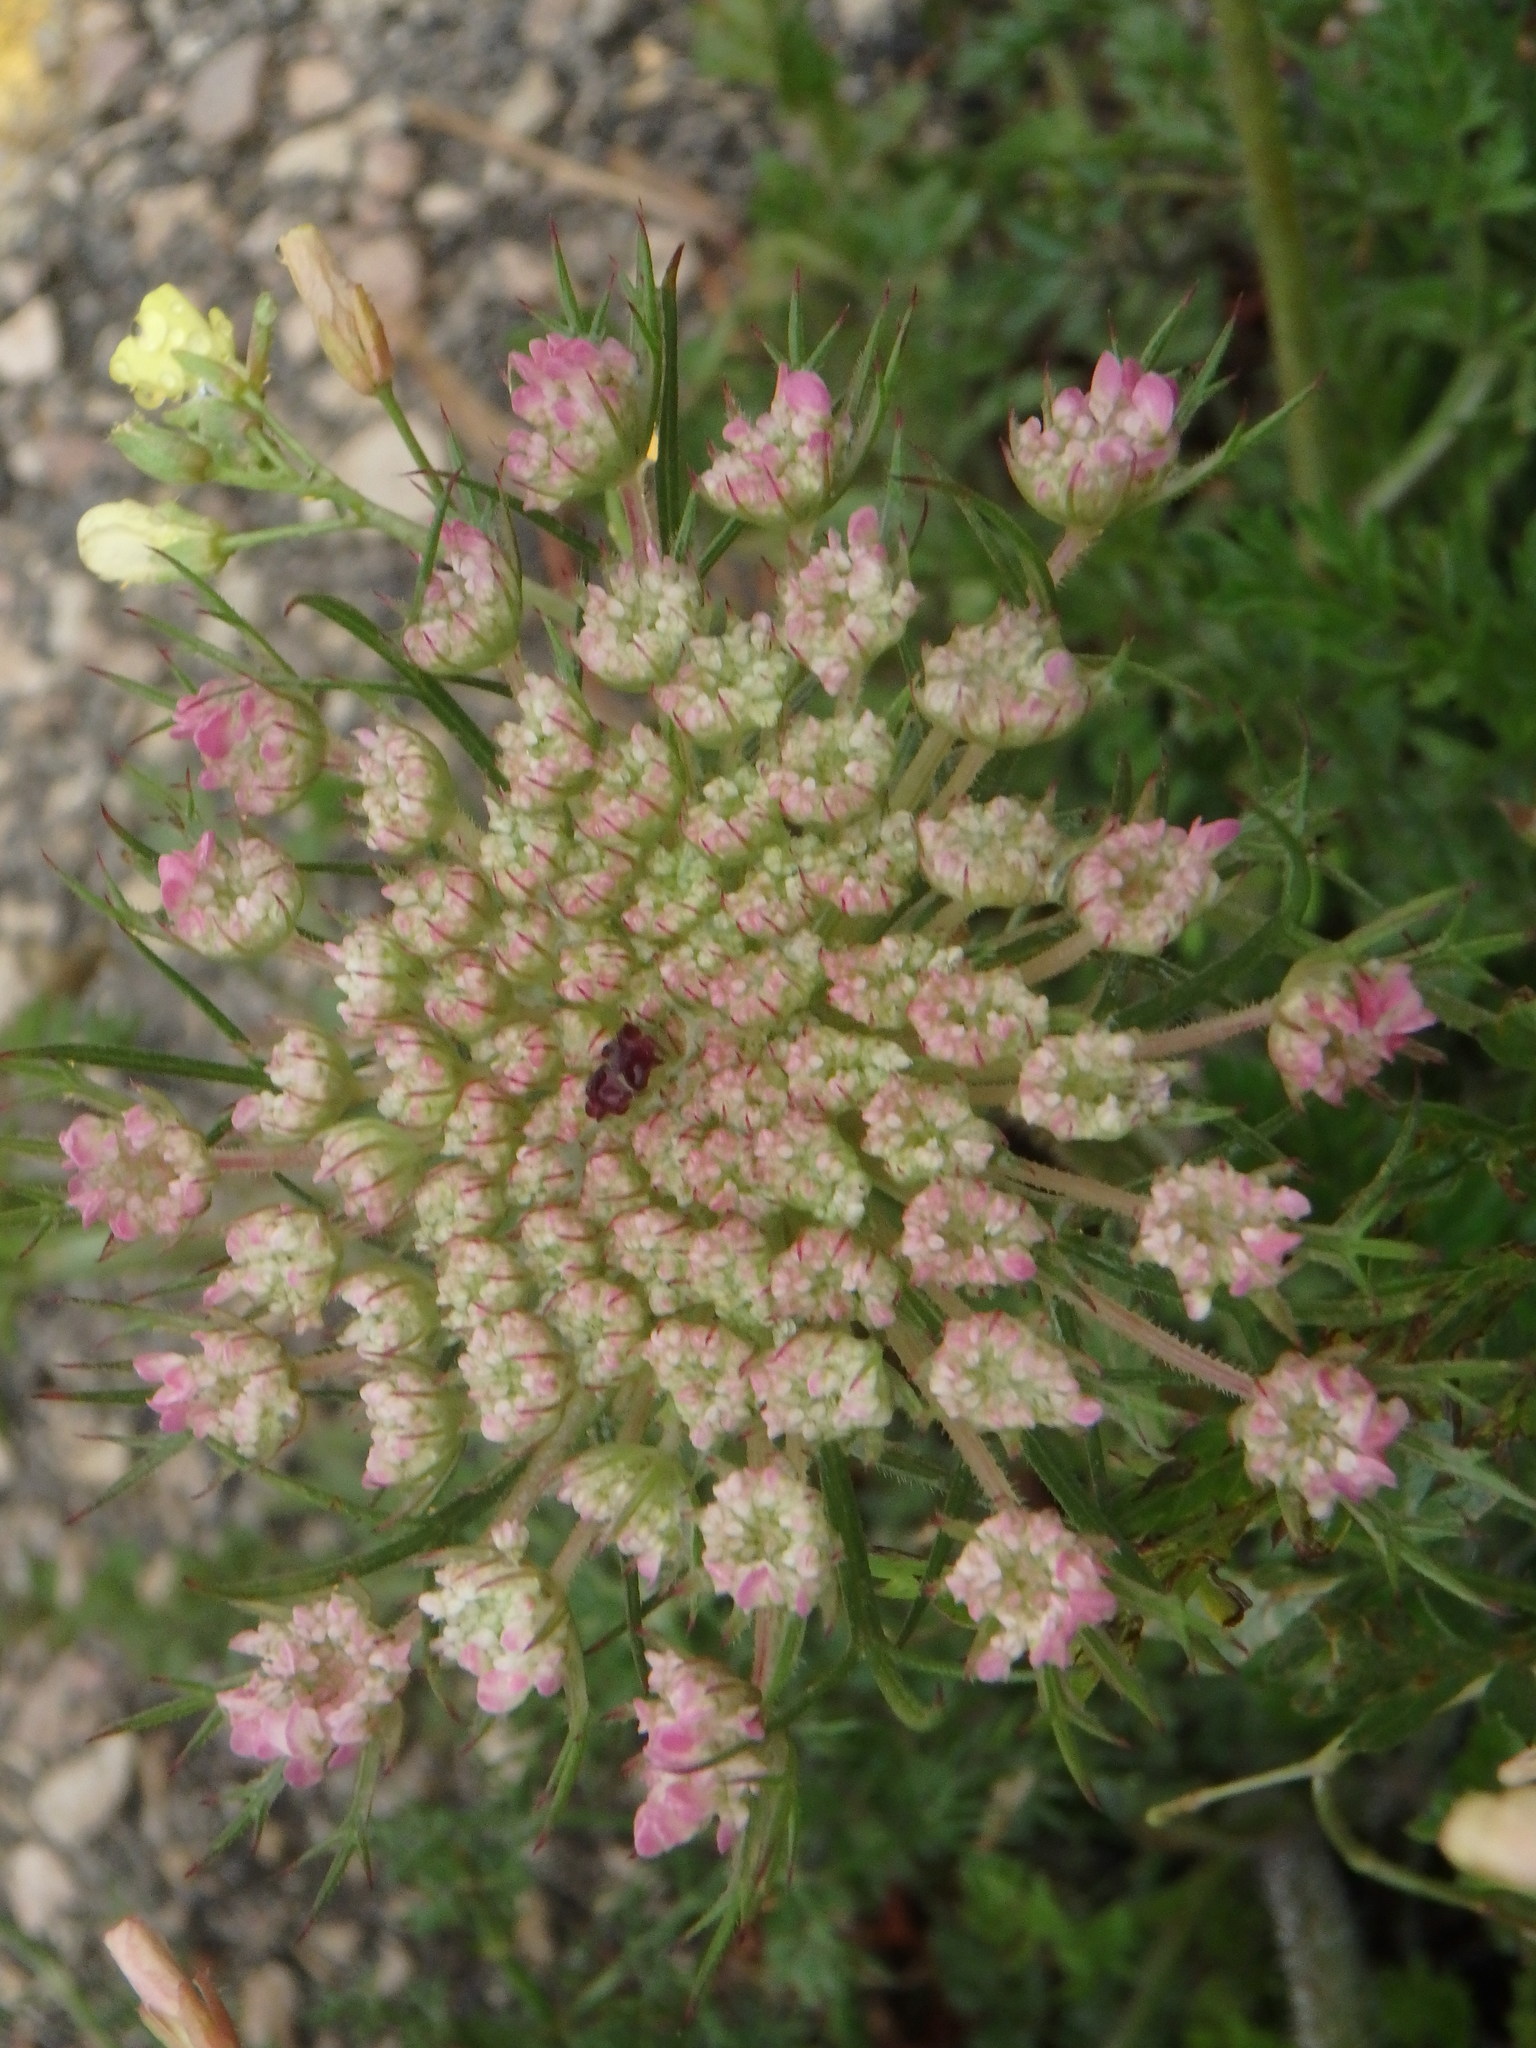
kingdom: Plantae
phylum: Tracheophyta
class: Magnoliopsida
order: Apiales
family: Apiaceae
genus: Daucus
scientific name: Daucus carota
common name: Wild carrot
